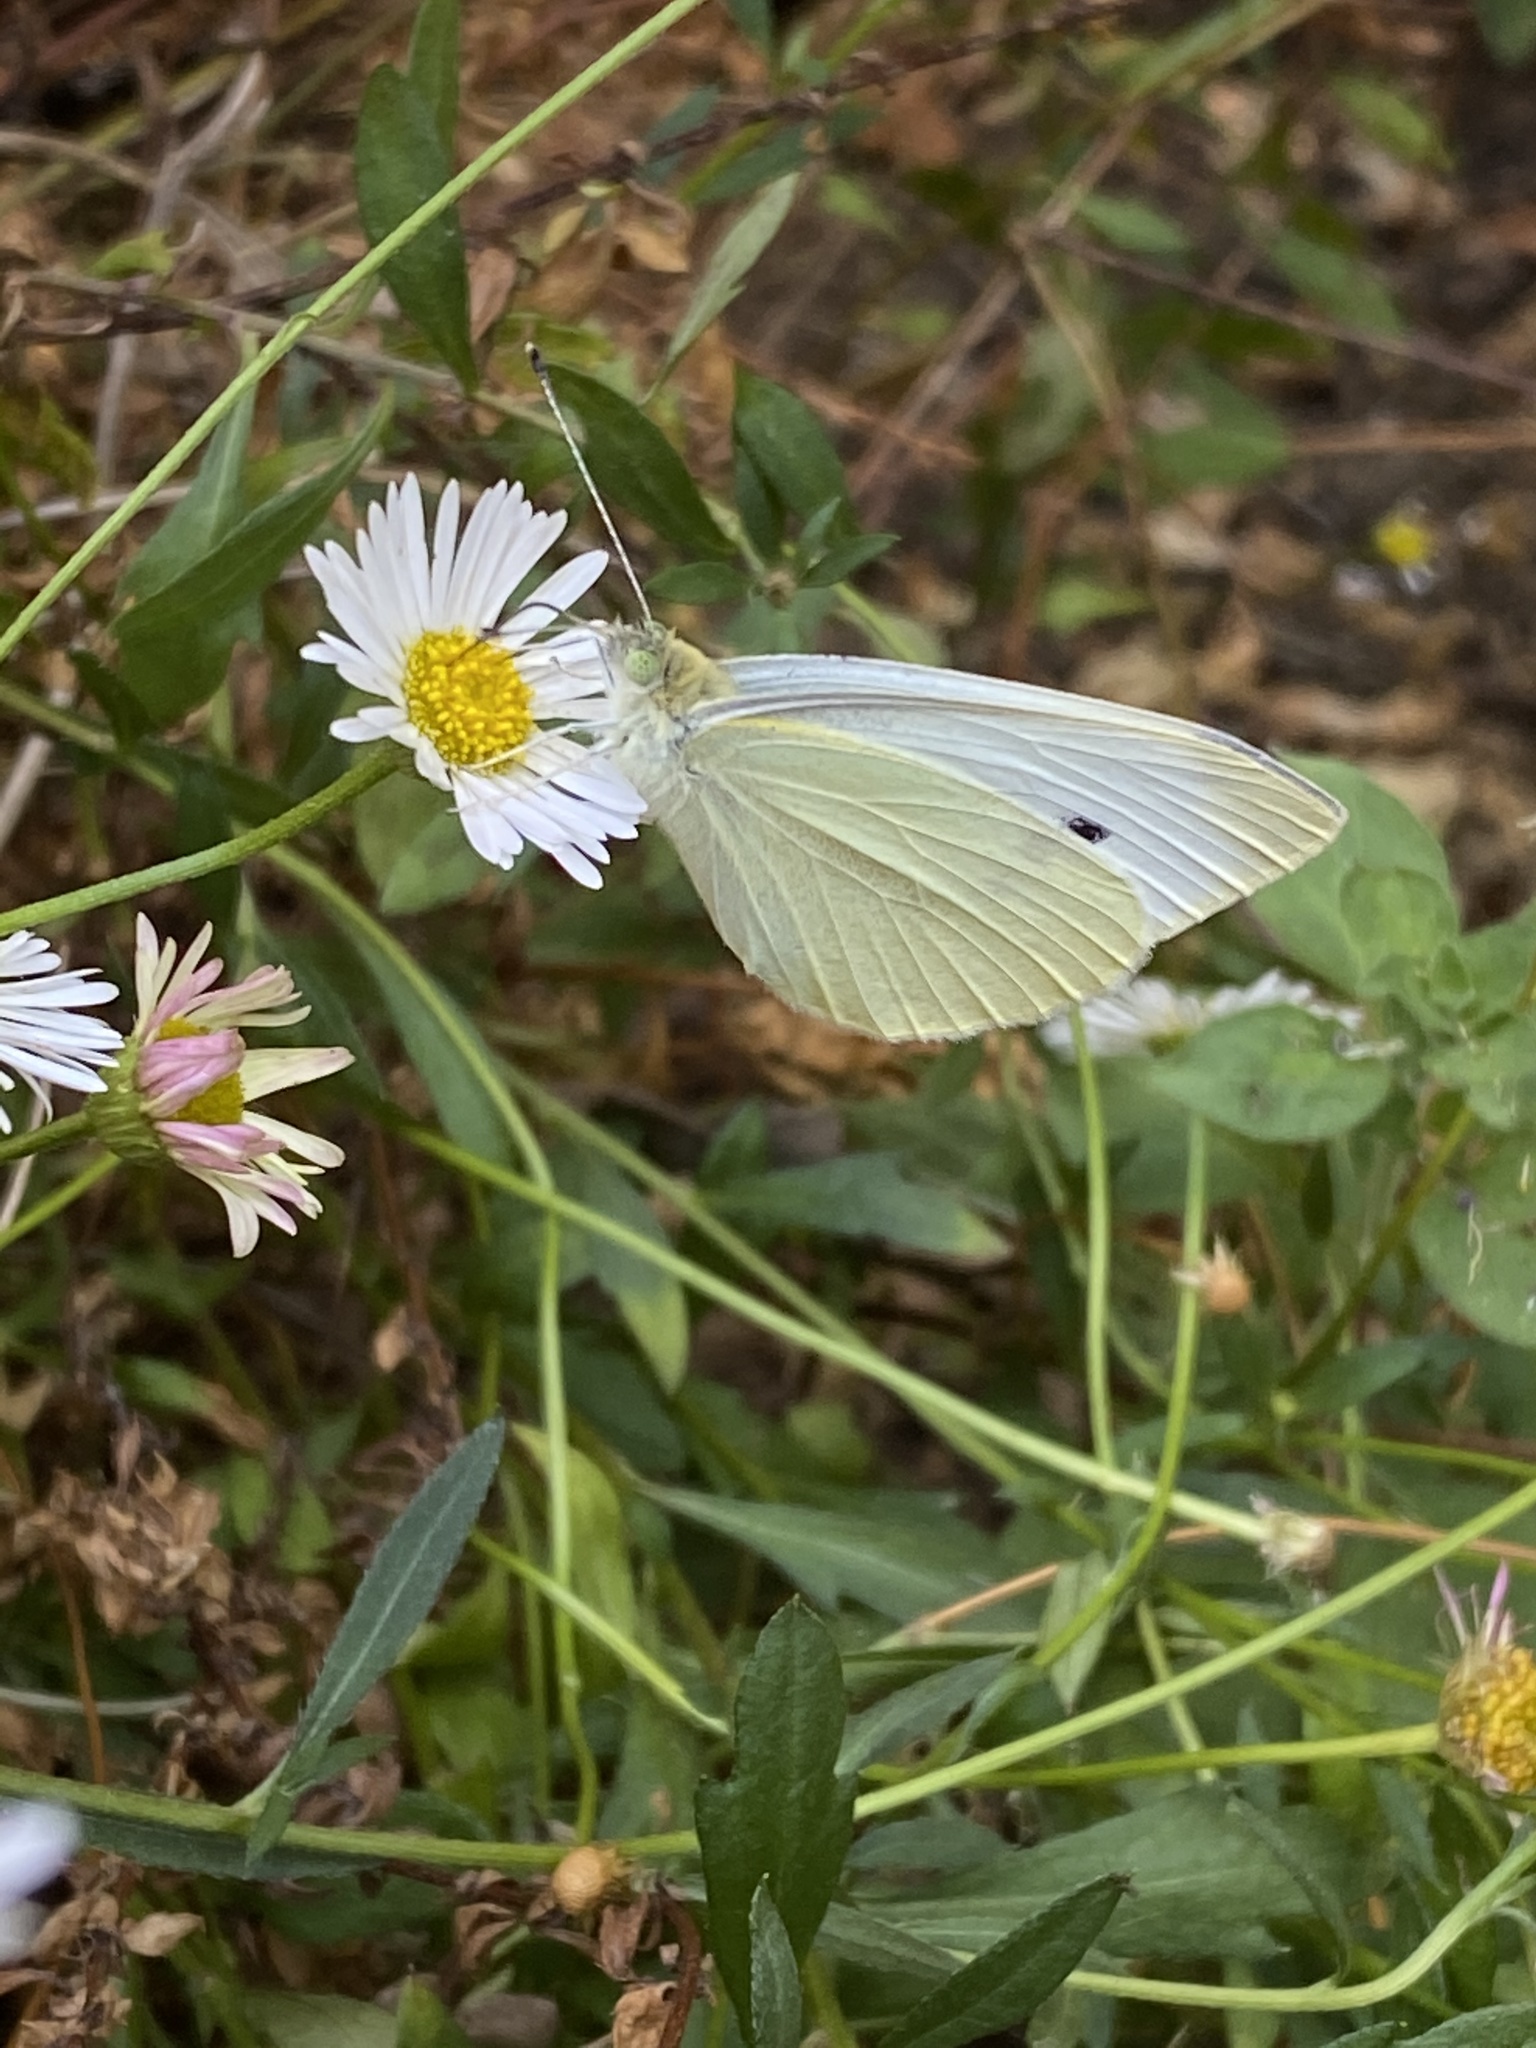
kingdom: Animalia
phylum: Arthropoda
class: Insecta
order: Lepidoptera
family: Pieridae
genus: Pieris
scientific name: Pieris rapae
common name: Small white
